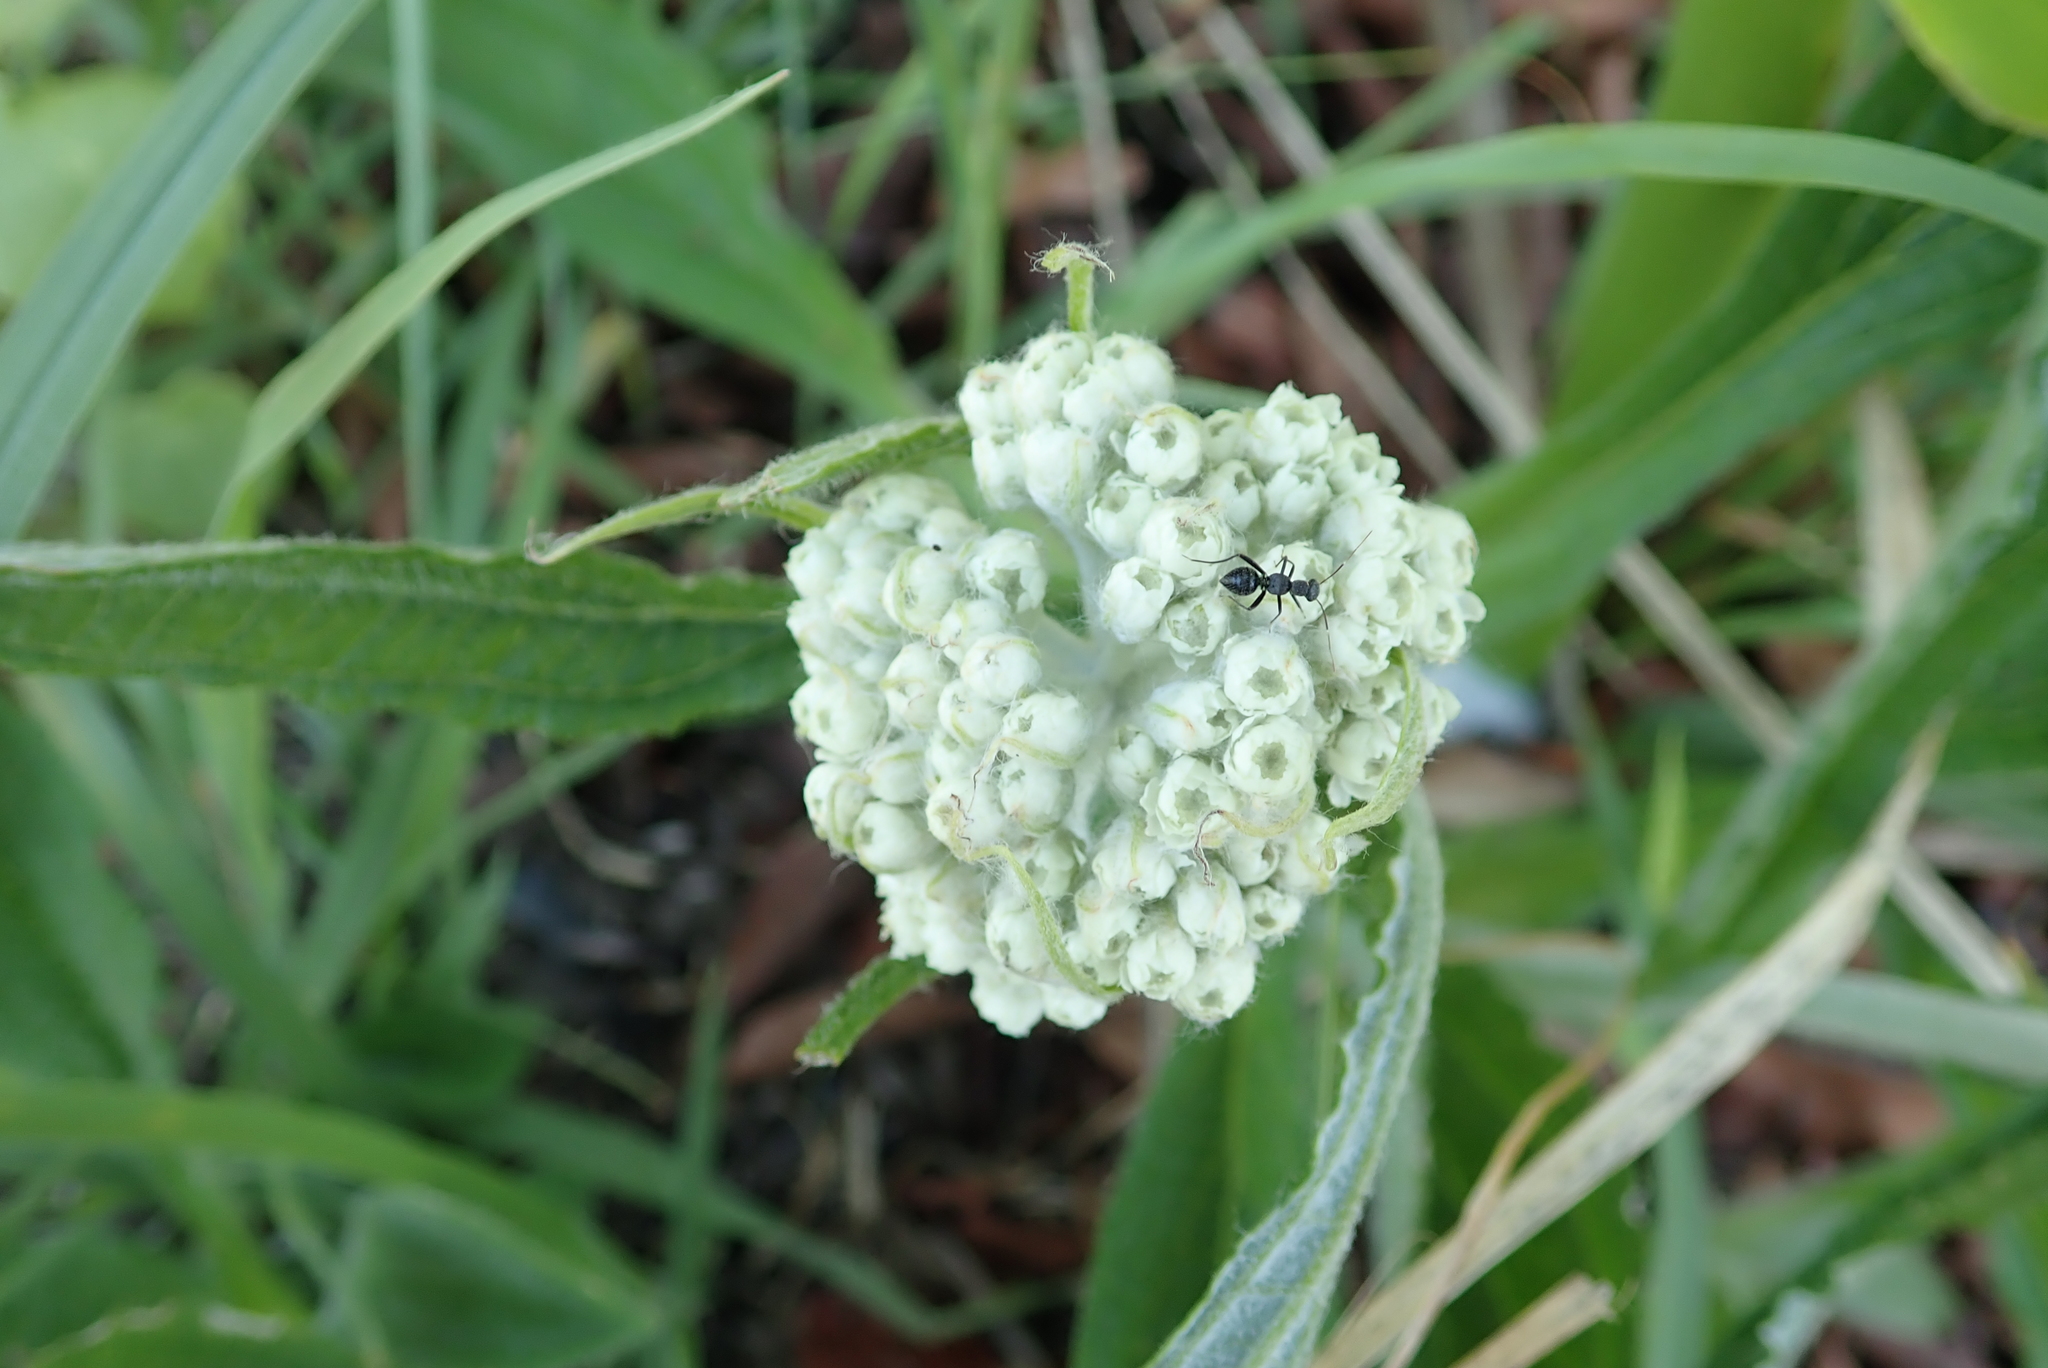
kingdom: Plantae
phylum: Tracheophyta
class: Magnoliopsida
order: Asterales
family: Asteraceae
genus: Helichrysum
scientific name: Helichrysum pallidum
